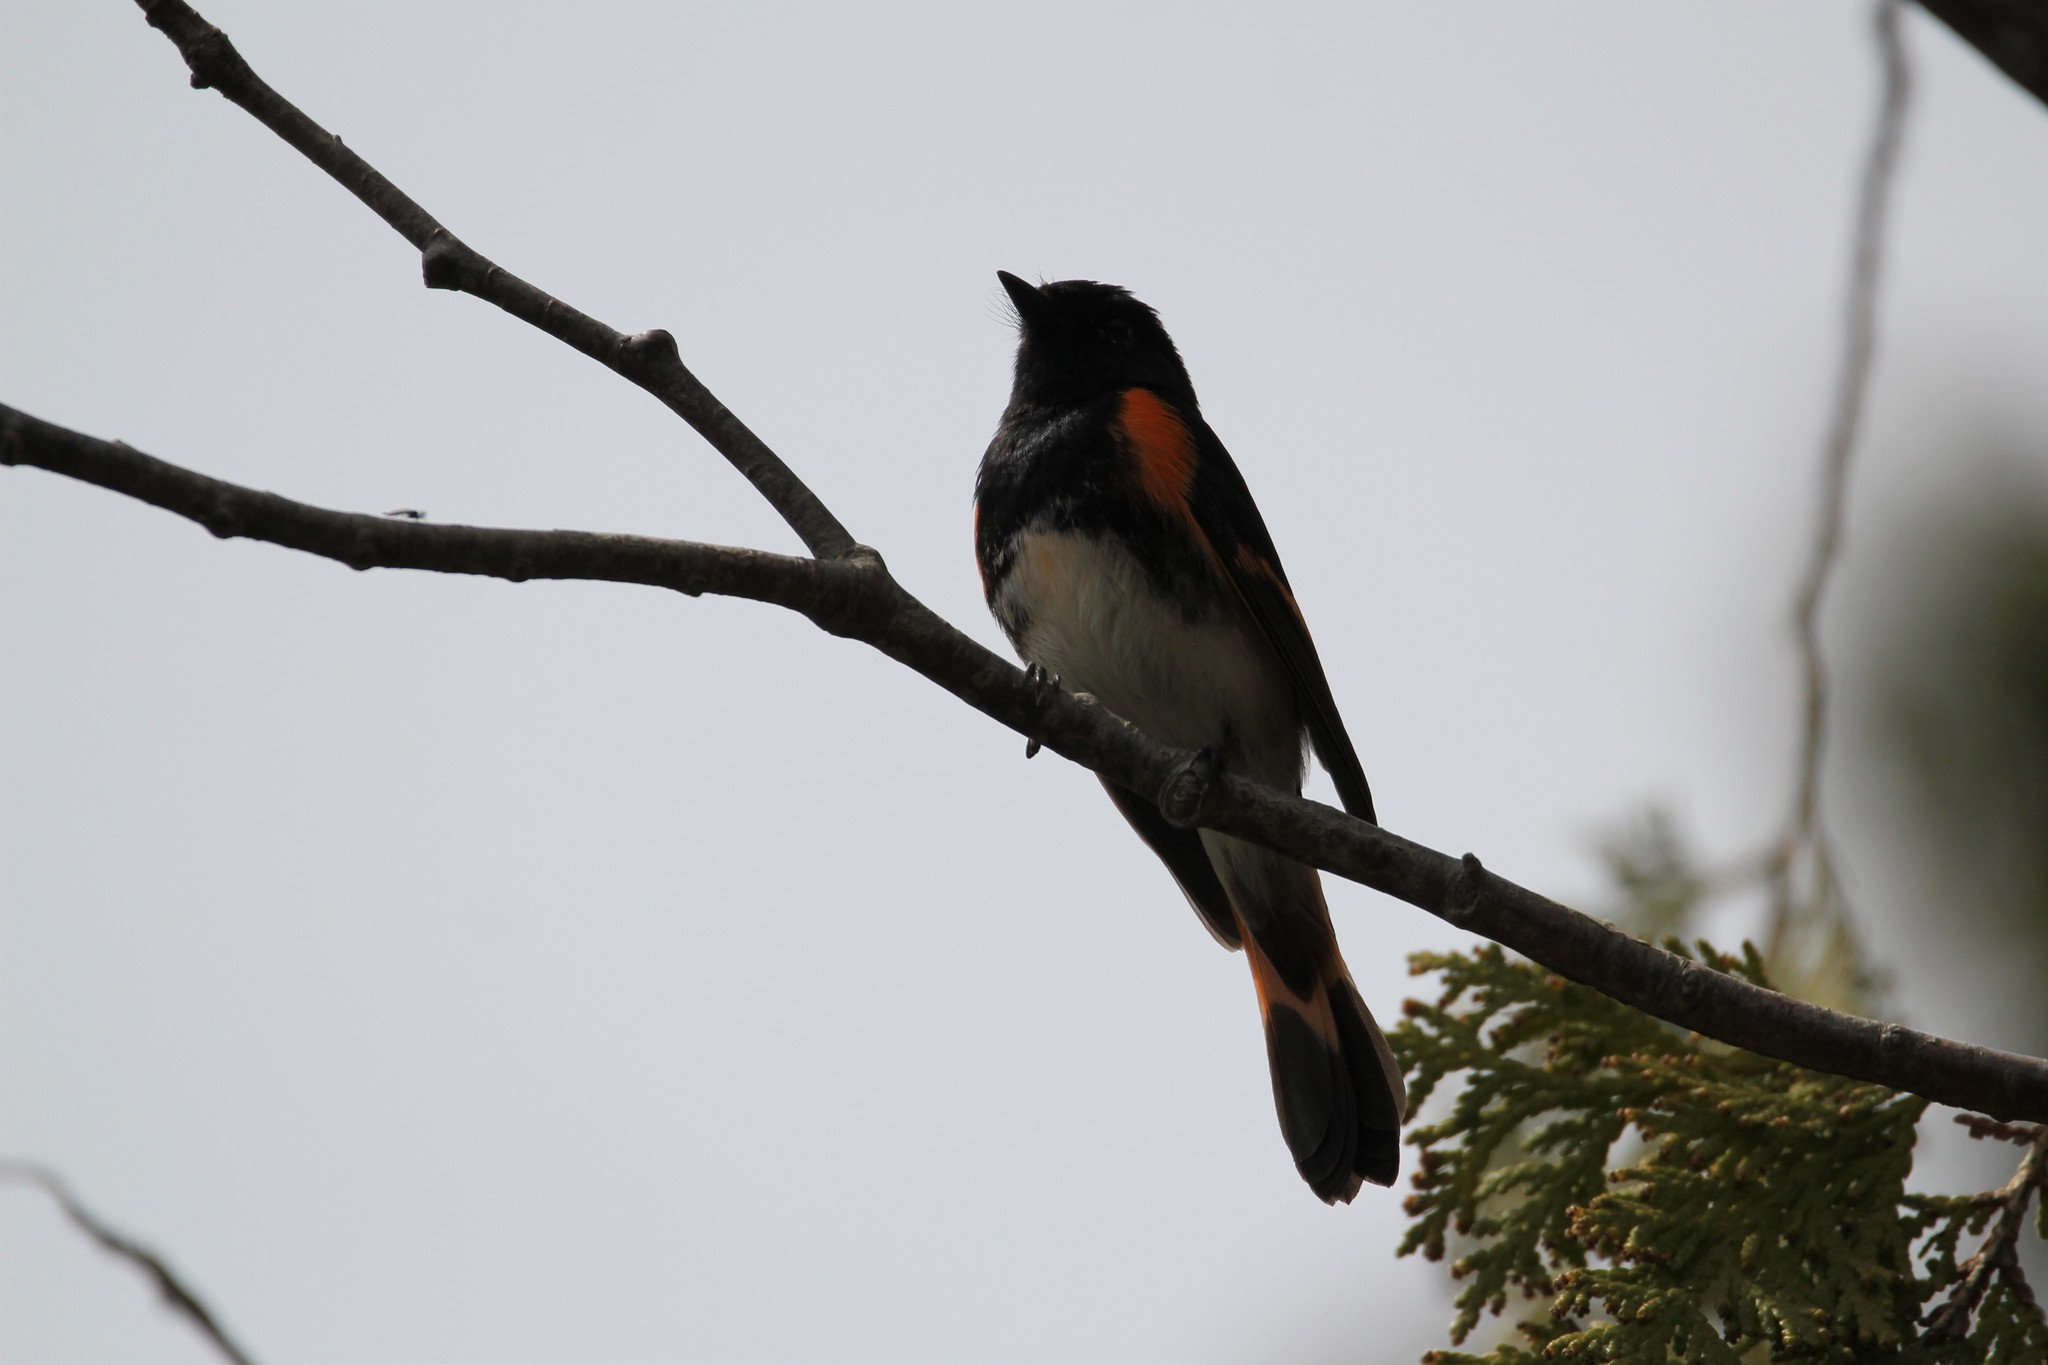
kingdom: Animalia
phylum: Chordata
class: Aves
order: Passeriformes
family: Parulidae
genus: Setophaga
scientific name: Setophaga ruticilla
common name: American redstart
